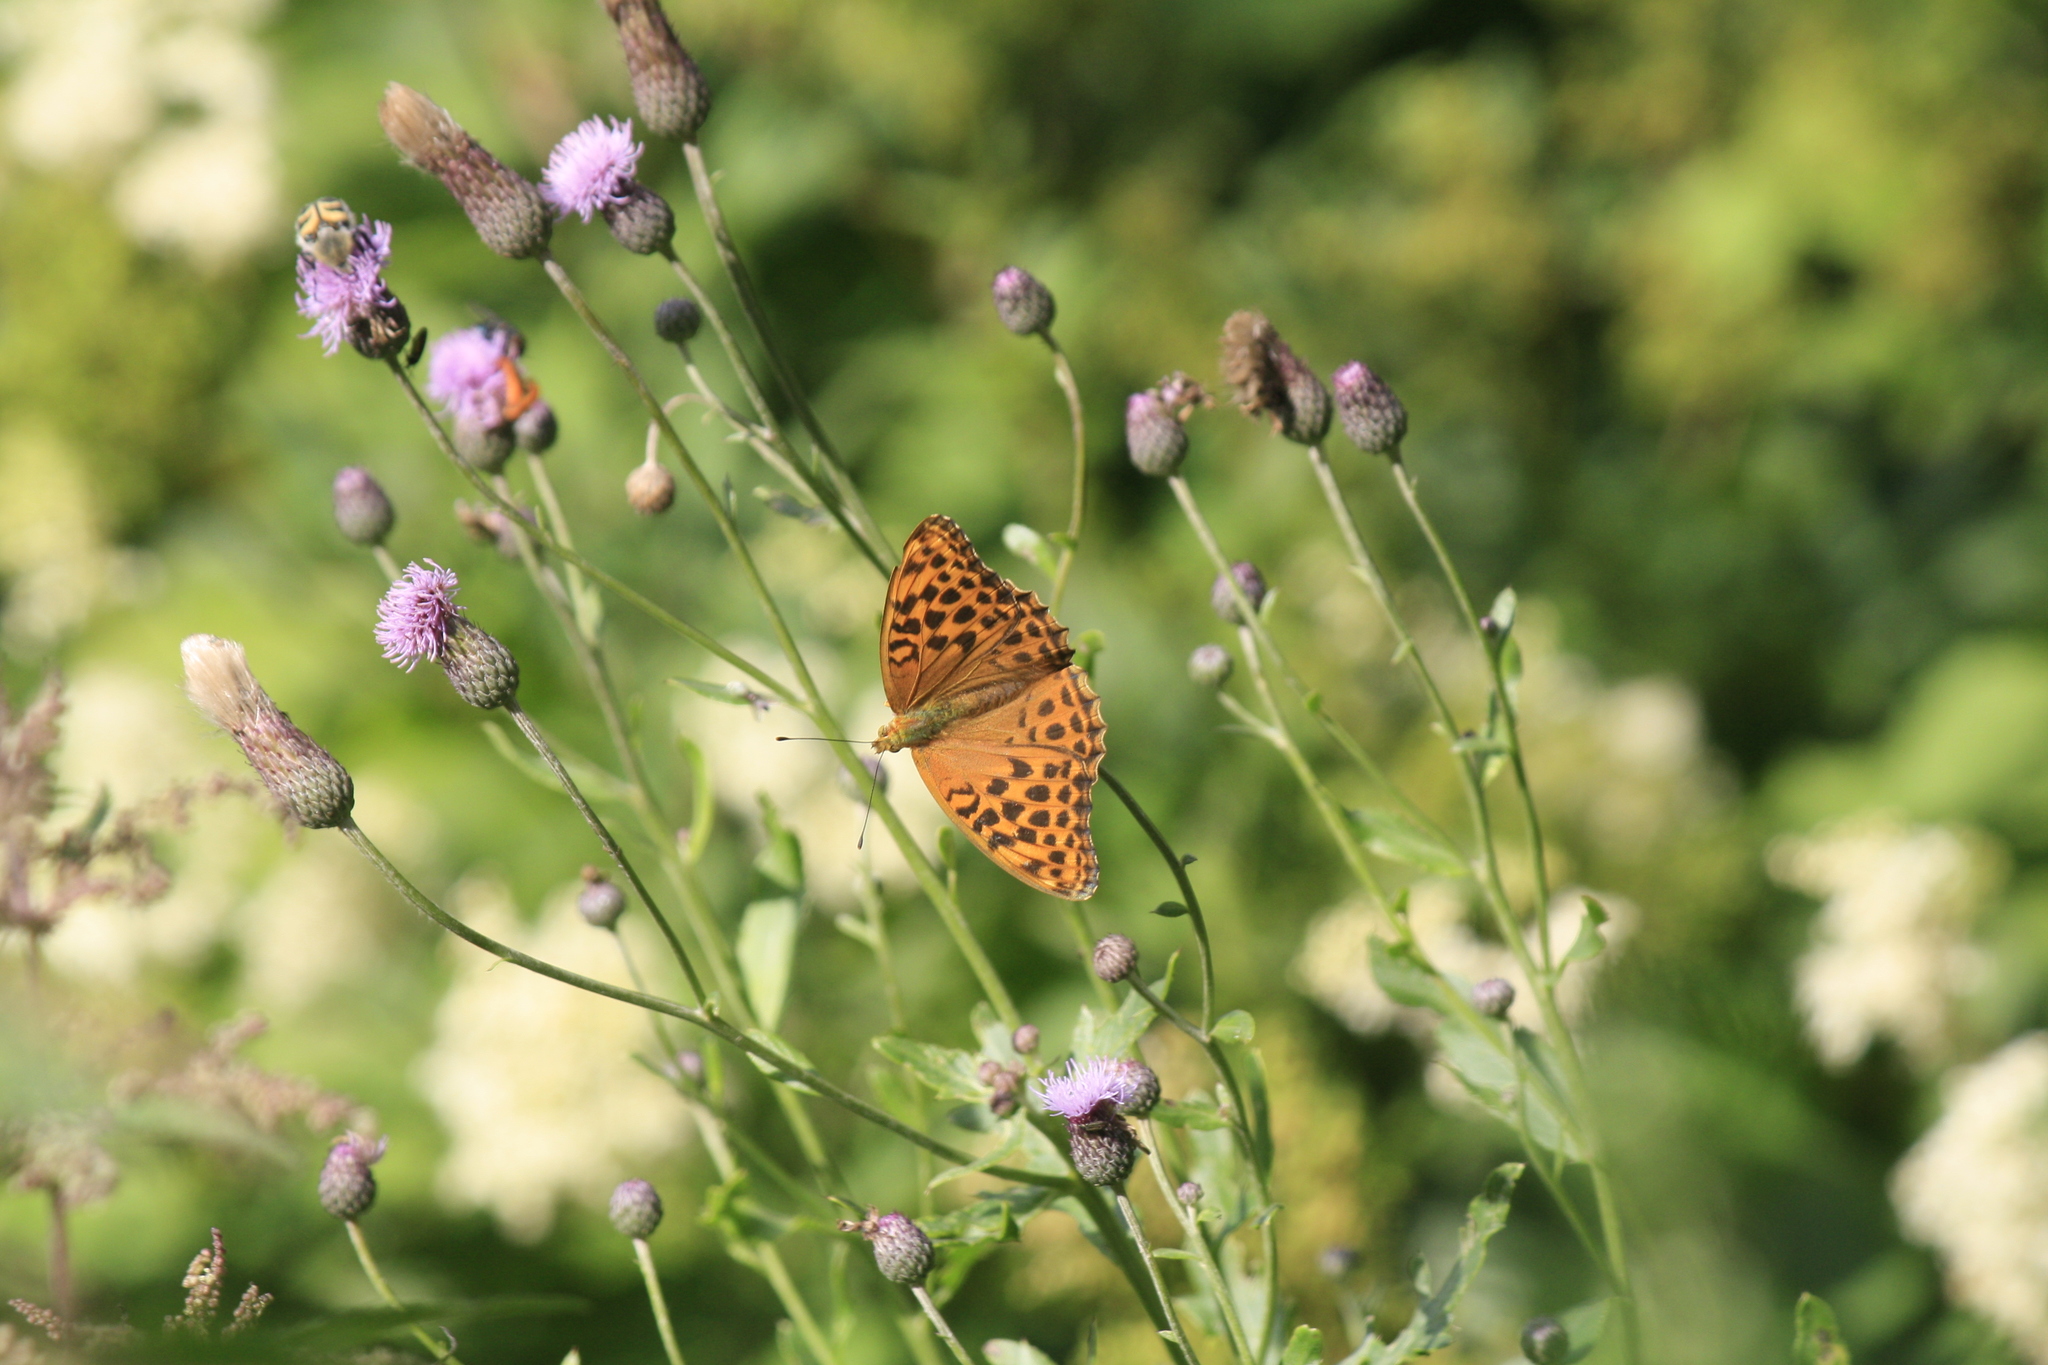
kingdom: Animalia
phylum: Arthropoda
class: Insecta
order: Lepidoptera
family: Nymphalidae
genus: Argynnis
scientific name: Argynnis paphia
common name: Silver-washed fritillary
